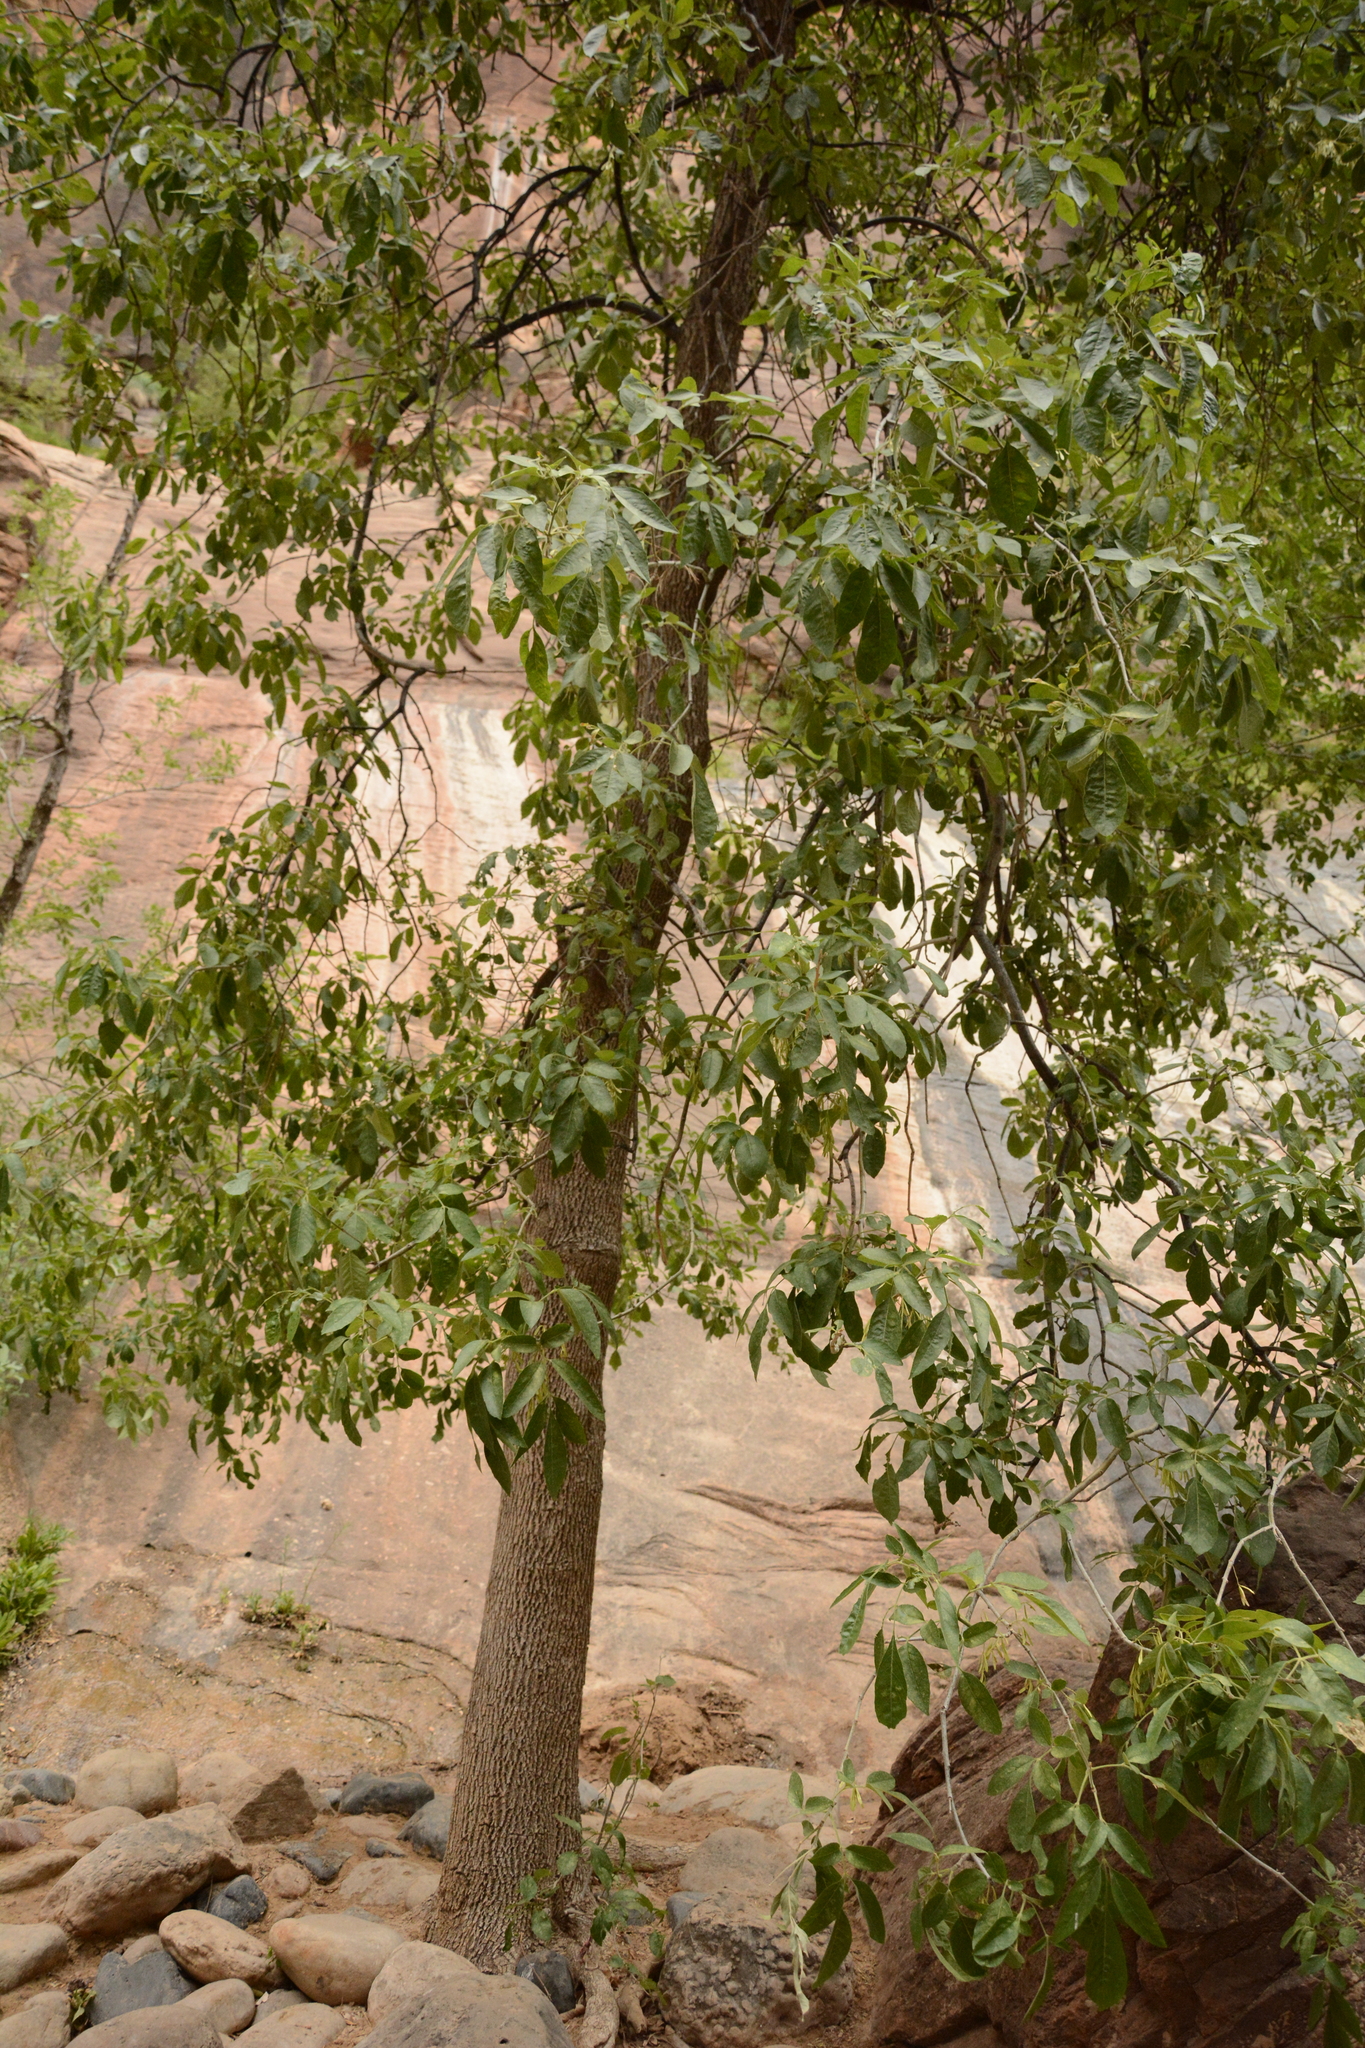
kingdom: Plantae
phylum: Tracheophyta
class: Magnoliopsida
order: Lamiales
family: Oleaceae
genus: Fraxinus
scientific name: Fraxinus velutina
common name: Arizon ash
